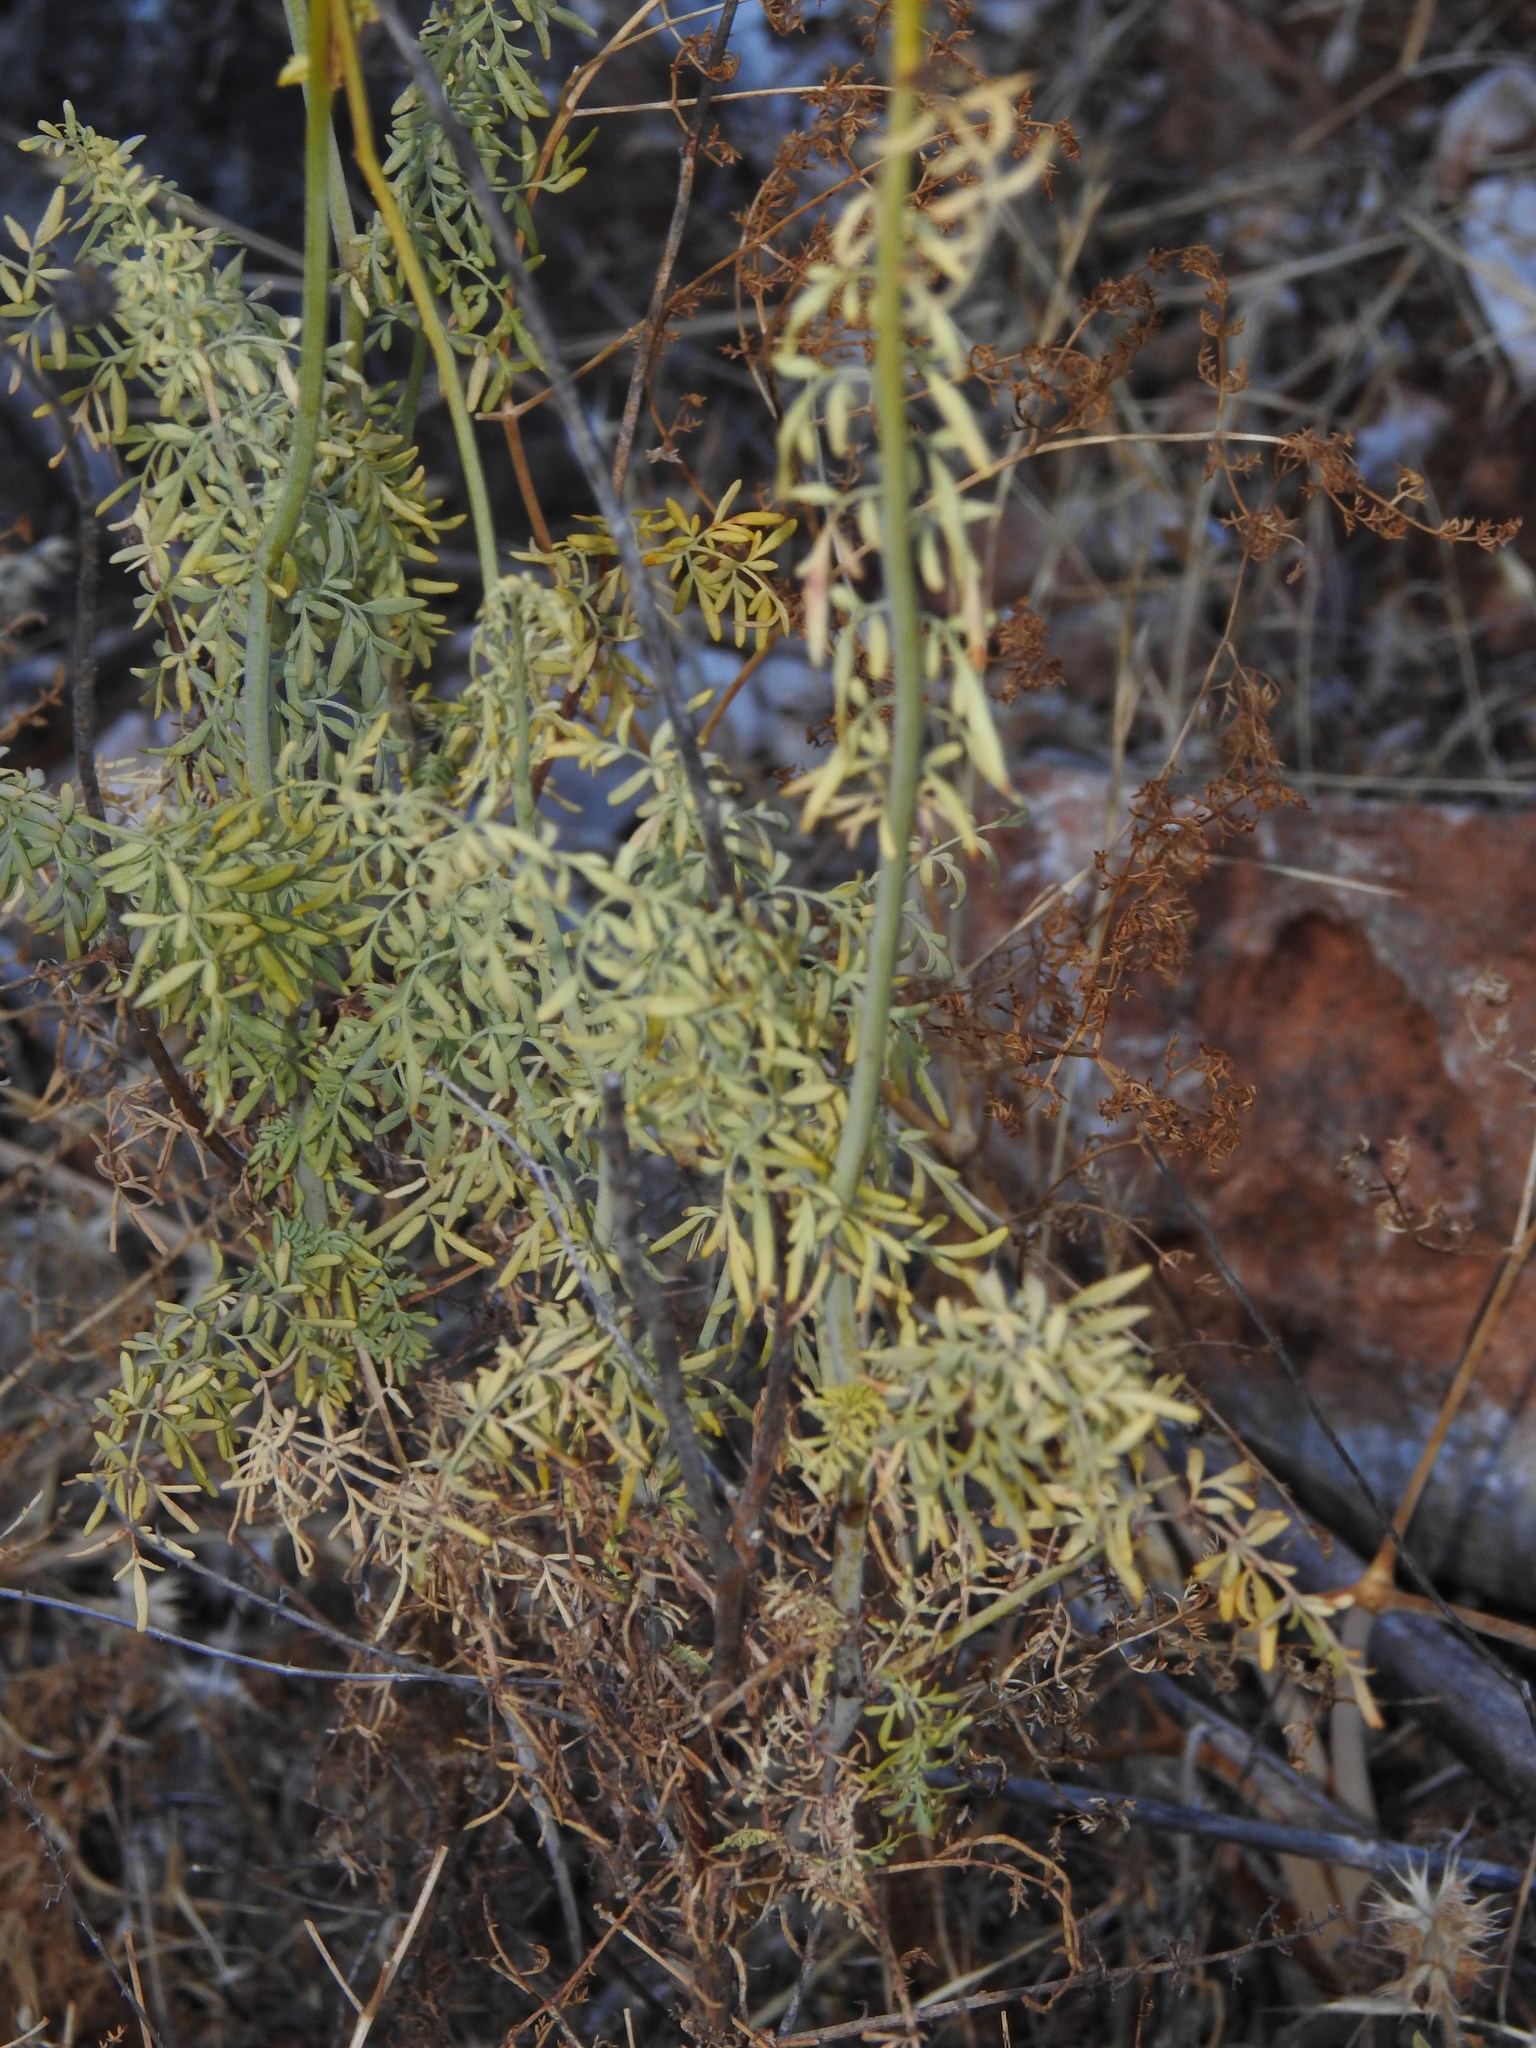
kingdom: Plantae
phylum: Tracheophyta
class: Magnoliopsida
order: Sapindales
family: Rutaceae
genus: Ruta
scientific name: Ruta chalepensis
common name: Fringed rue
